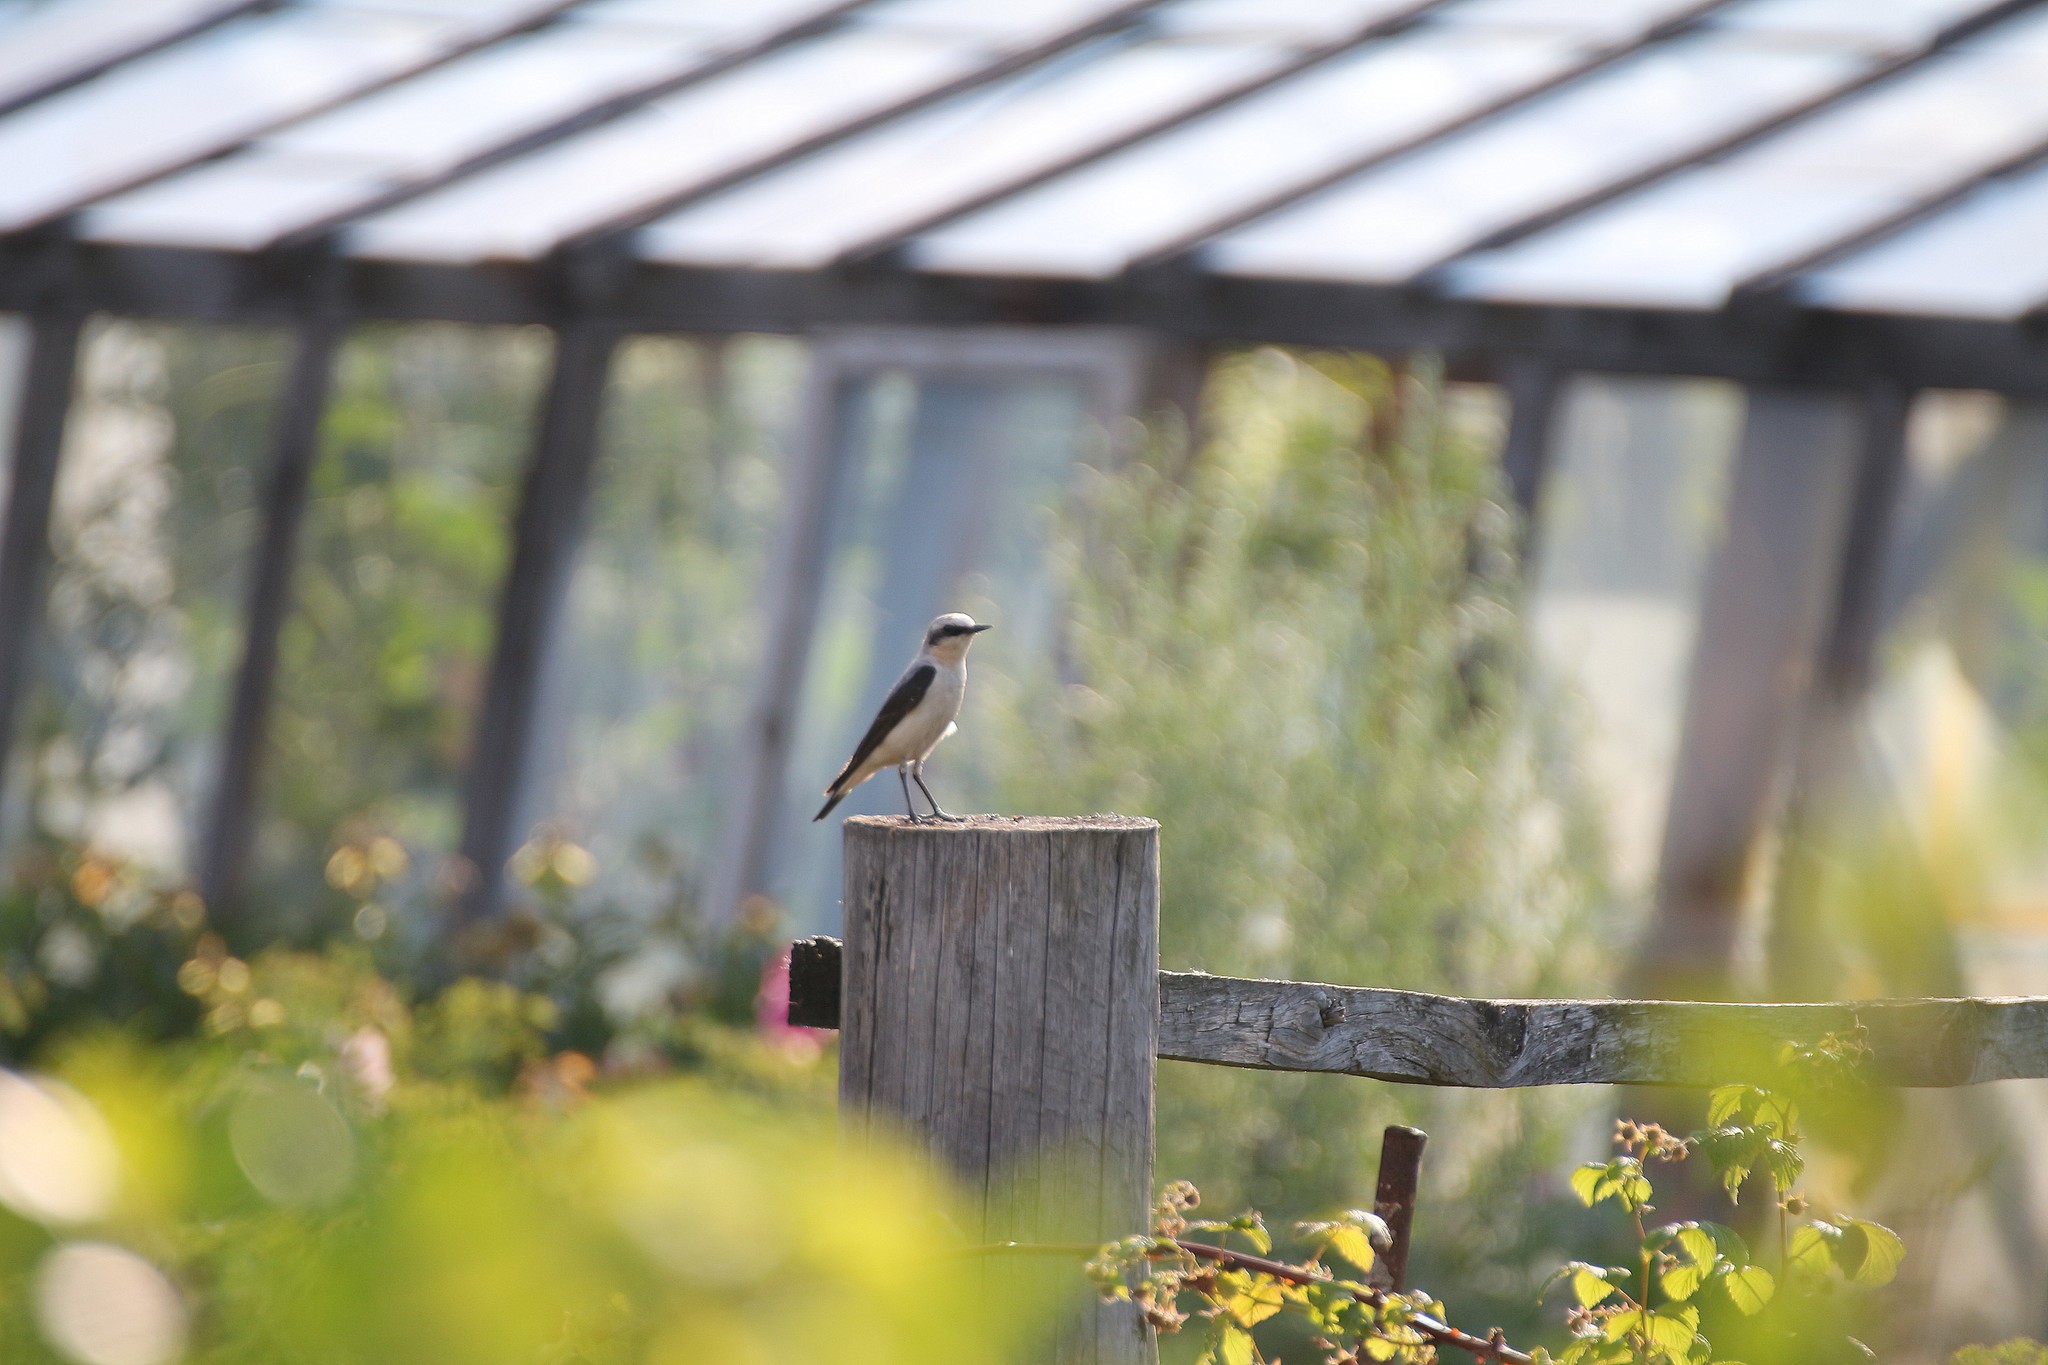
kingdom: Animalia
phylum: Chordata
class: Aves
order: Passeriformes
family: Muscicapidae
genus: Oenanthe
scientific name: Oenanthe oenanthe
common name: Northern wheatear
